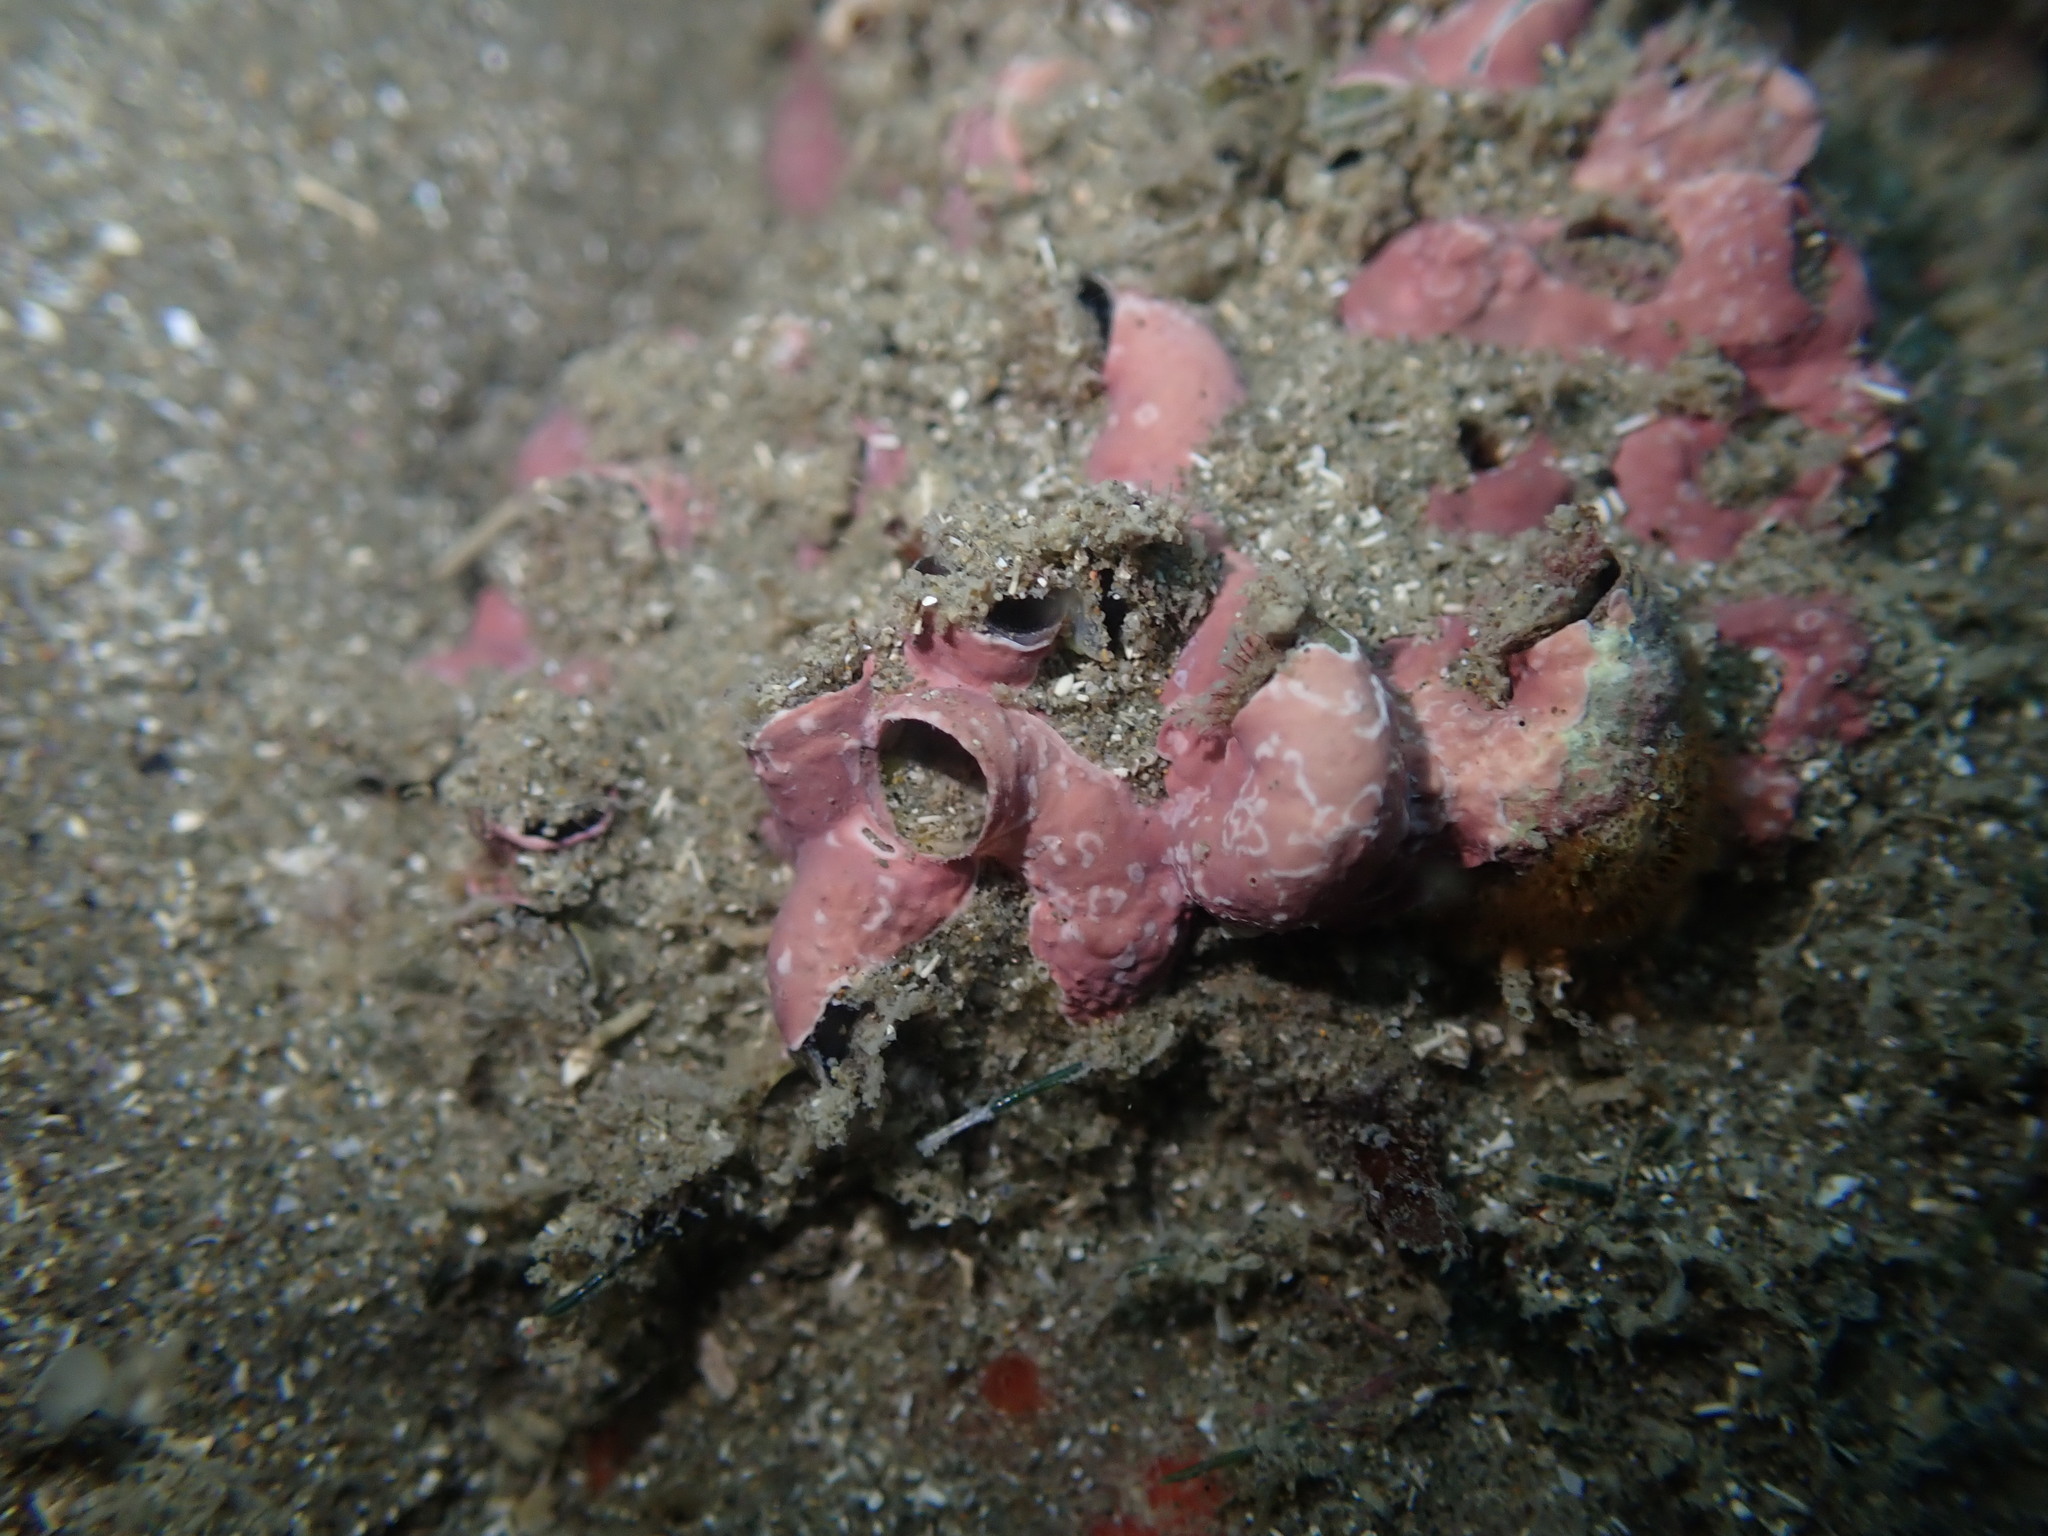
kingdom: Animalia
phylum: Mollusca
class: Gastropoda
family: Siliquariidae
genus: Stephopoma
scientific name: Stephopoma roseum
